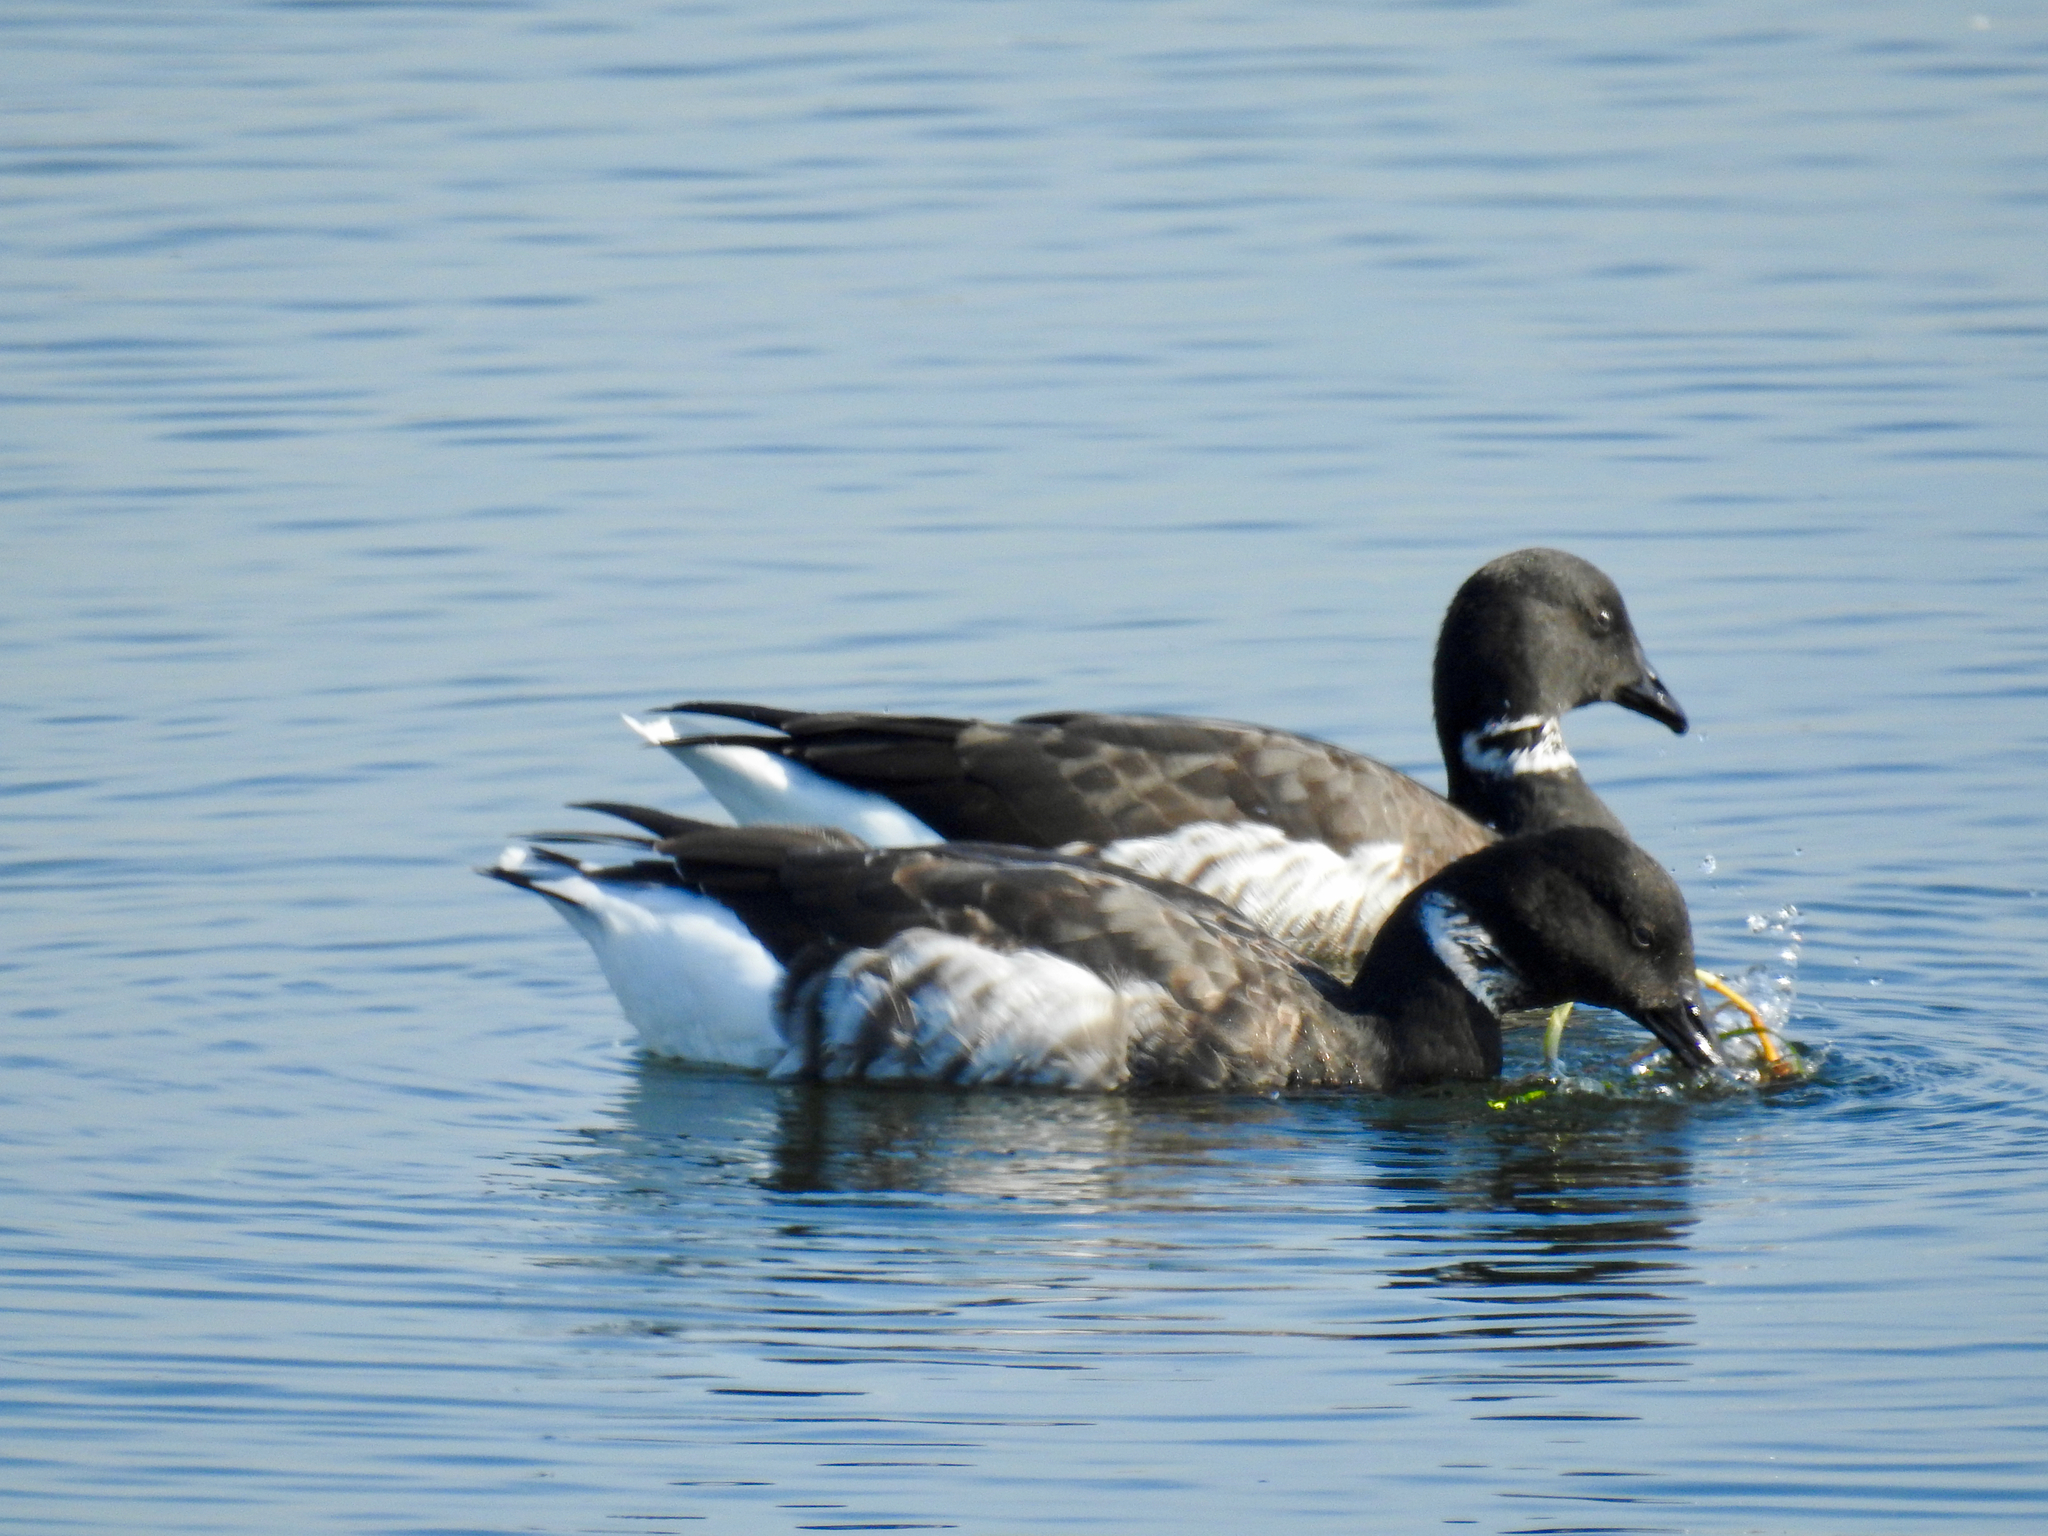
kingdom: Animalia
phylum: Chordata
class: Aves
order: Anseriformes
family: Anatidae
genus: Branta
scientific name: Branta bernicla
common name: Brant goose
